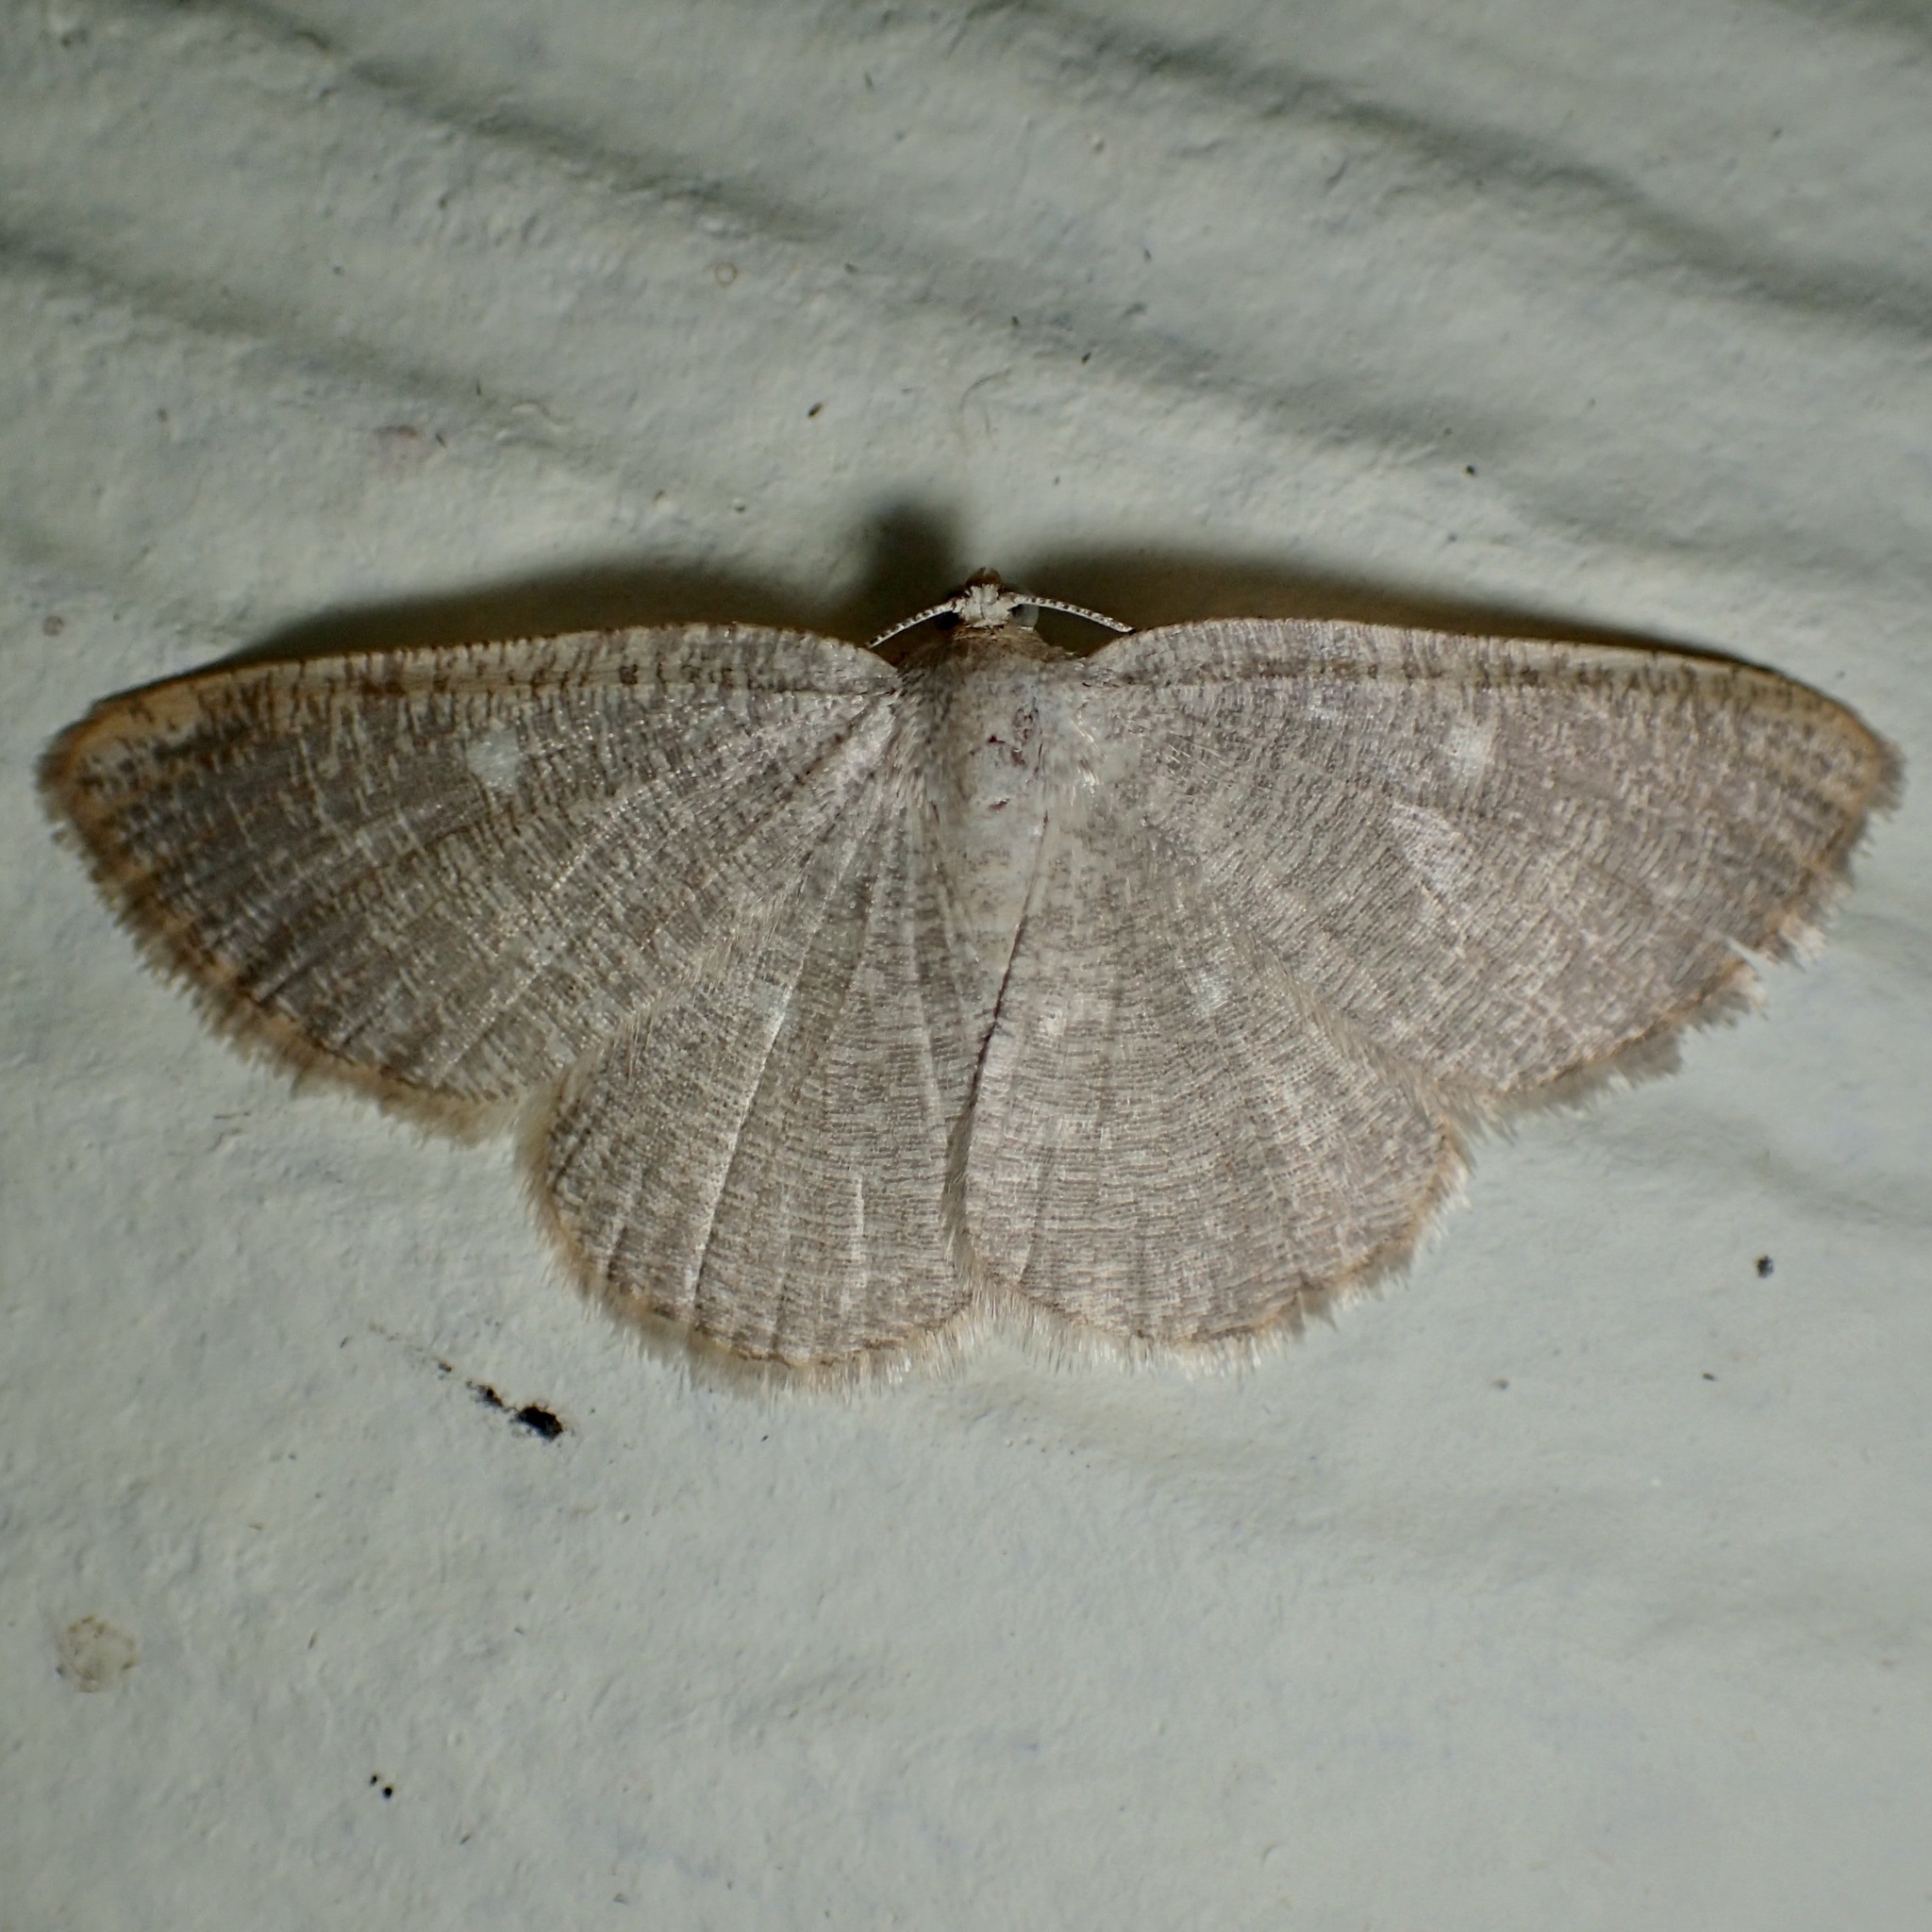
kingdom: Animalia
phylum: Arthropoda
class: Insecta
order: Lepidoptera
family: Geometridae
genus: Pterospoda
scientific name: Pterospoda kunzei
